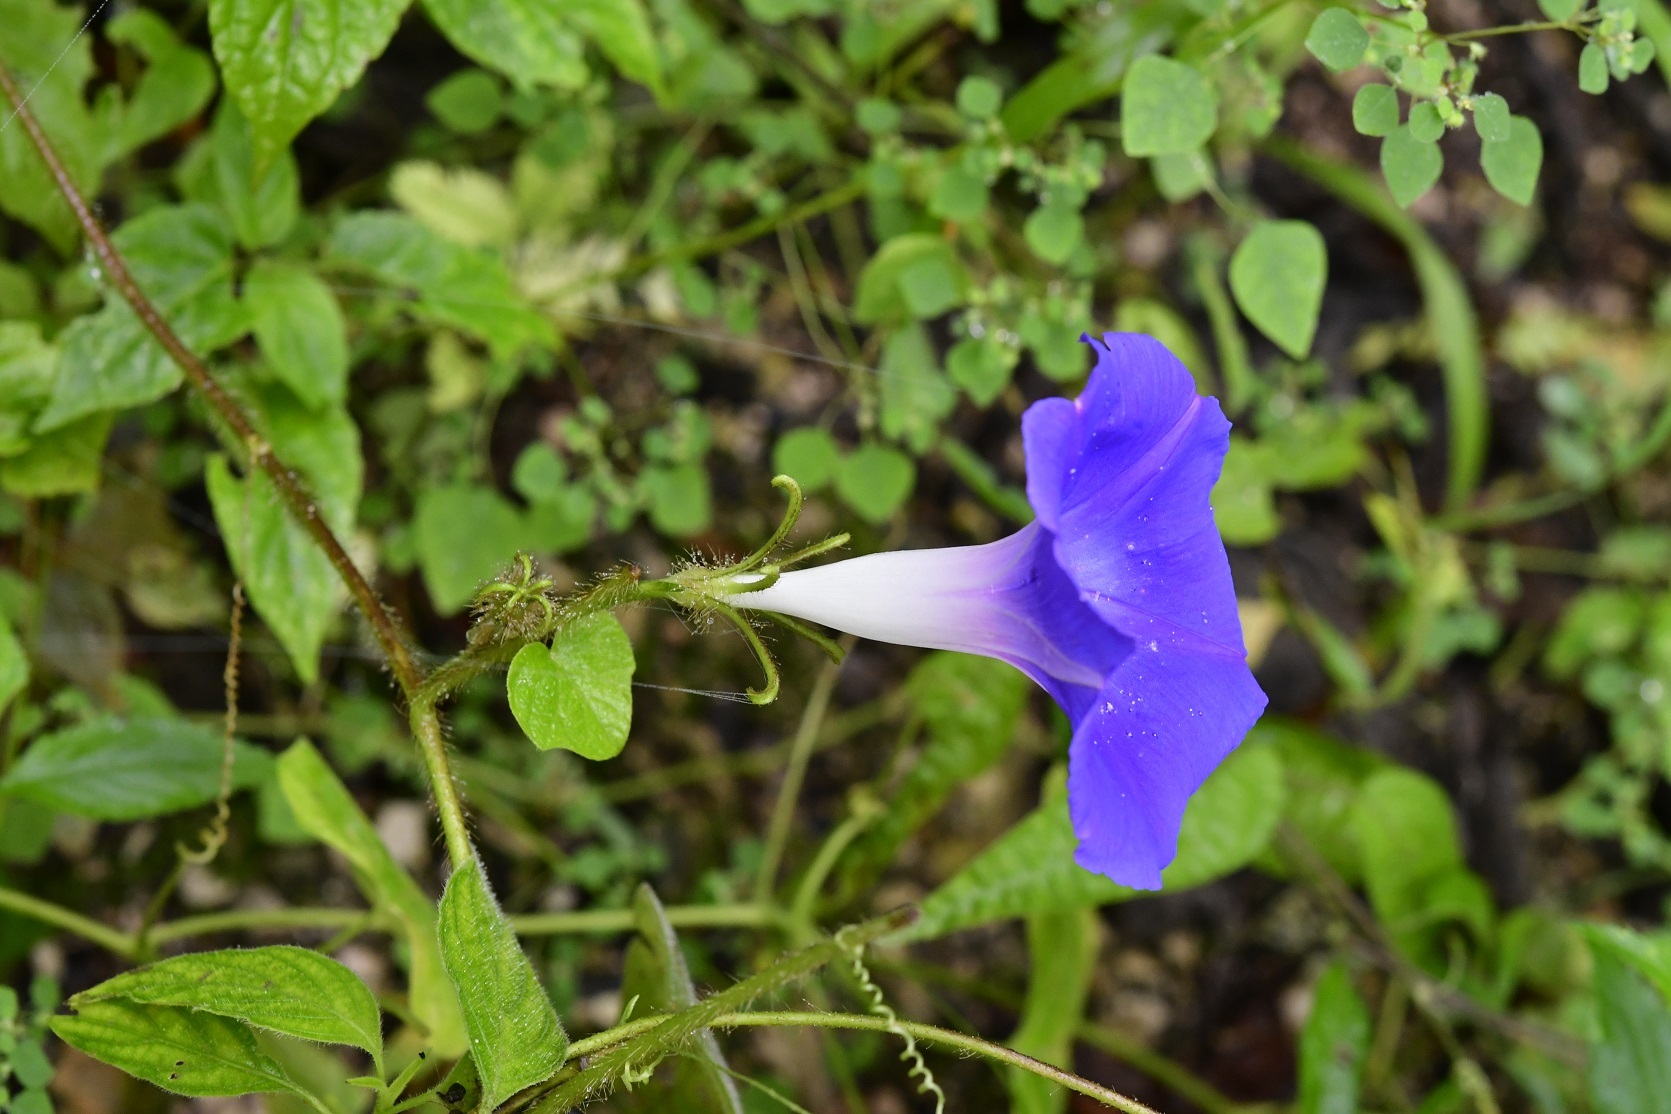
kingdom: Plantae
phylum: Tracheophyta
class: Magnoliopsida
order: Solanales
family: Convolvulaceae
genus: Ipomoea
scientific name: Ipomoea hederacea
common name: Ivy-leaved morning-glory
